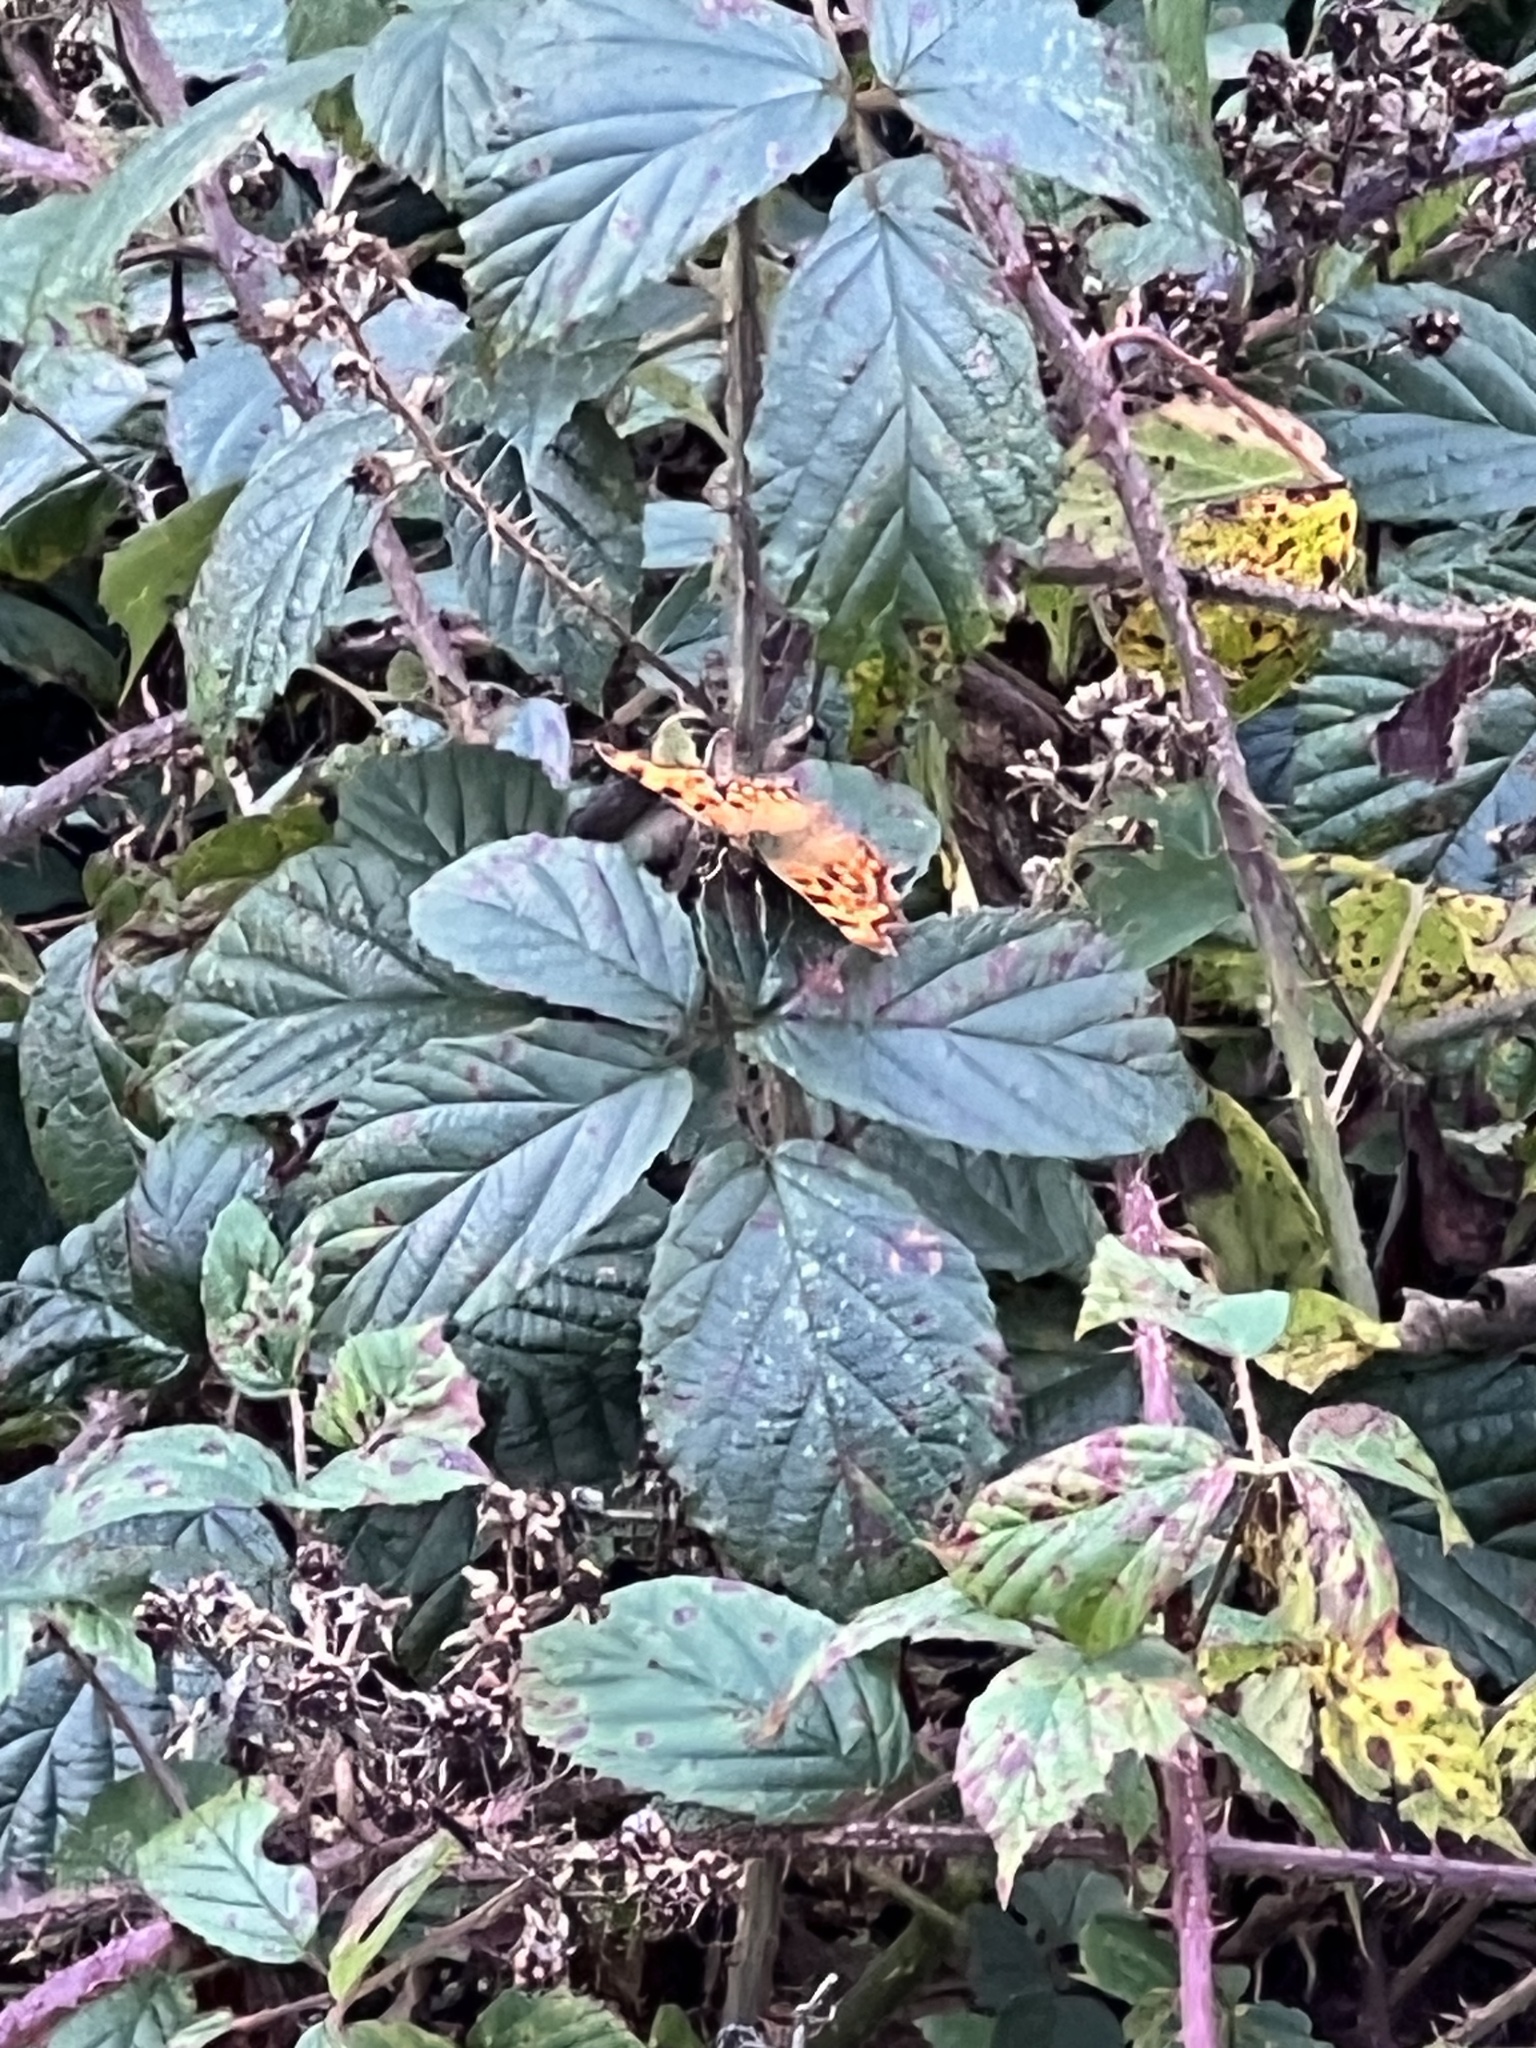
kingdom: Animalia
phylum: Arthropoda
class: Insecta
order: Lepidoptera
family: Nymphalidae
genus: Polygonia
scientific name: Polygonia c-album
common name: Comma
